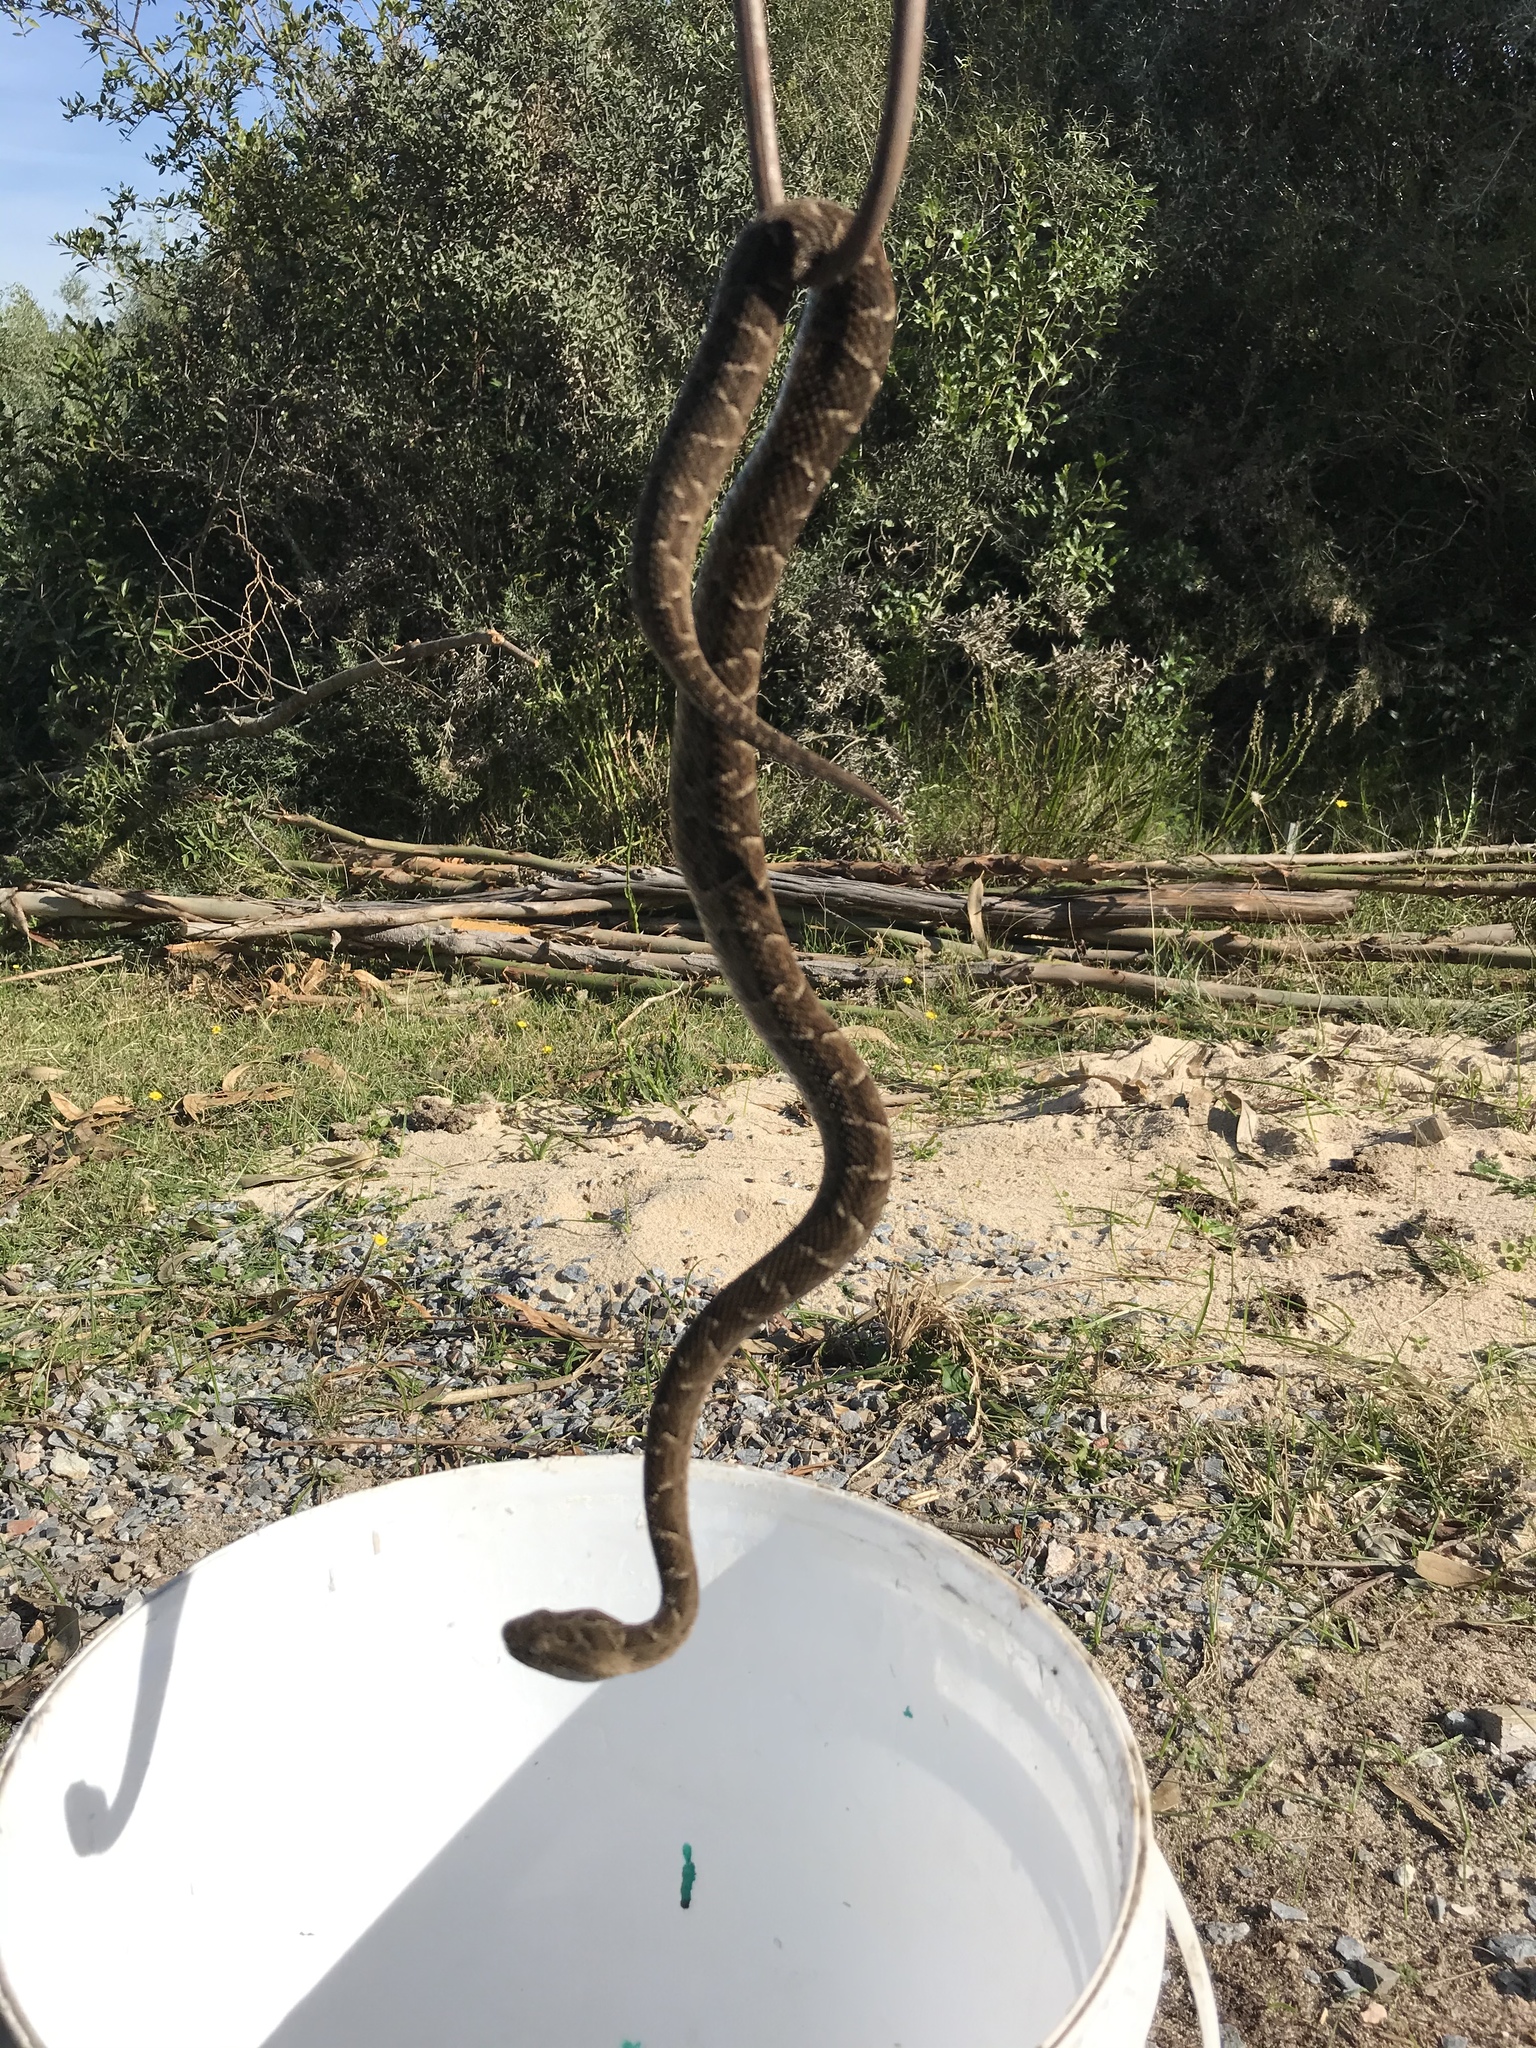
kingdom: Animalia
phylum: Chordata
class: Squamata
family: Viperidae
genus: Bothrops
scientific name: Bothrops pubescens
